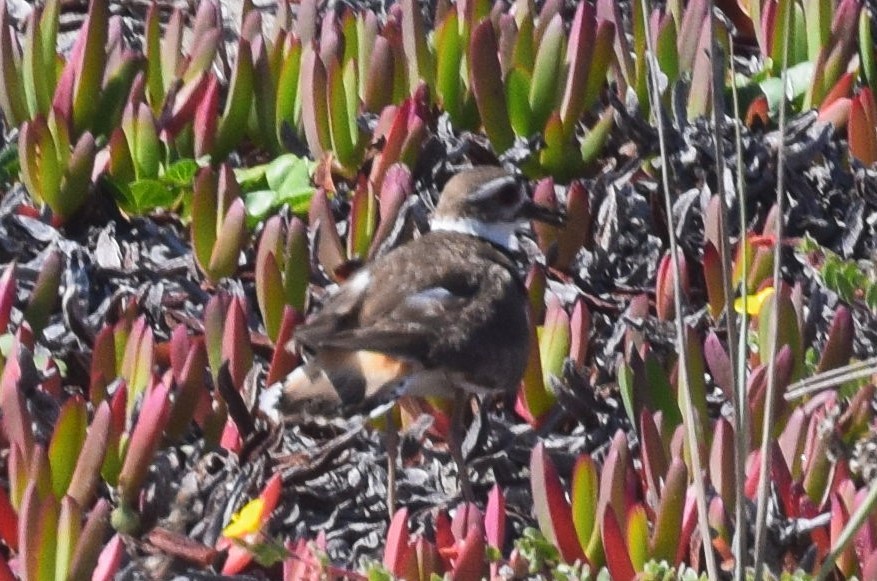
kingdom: Animalia
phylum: Chordata
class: Aves
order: Charadriiformes
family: Charadriidae
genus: Charadrius
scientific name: Charadrius vociferus
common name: Killdeer
